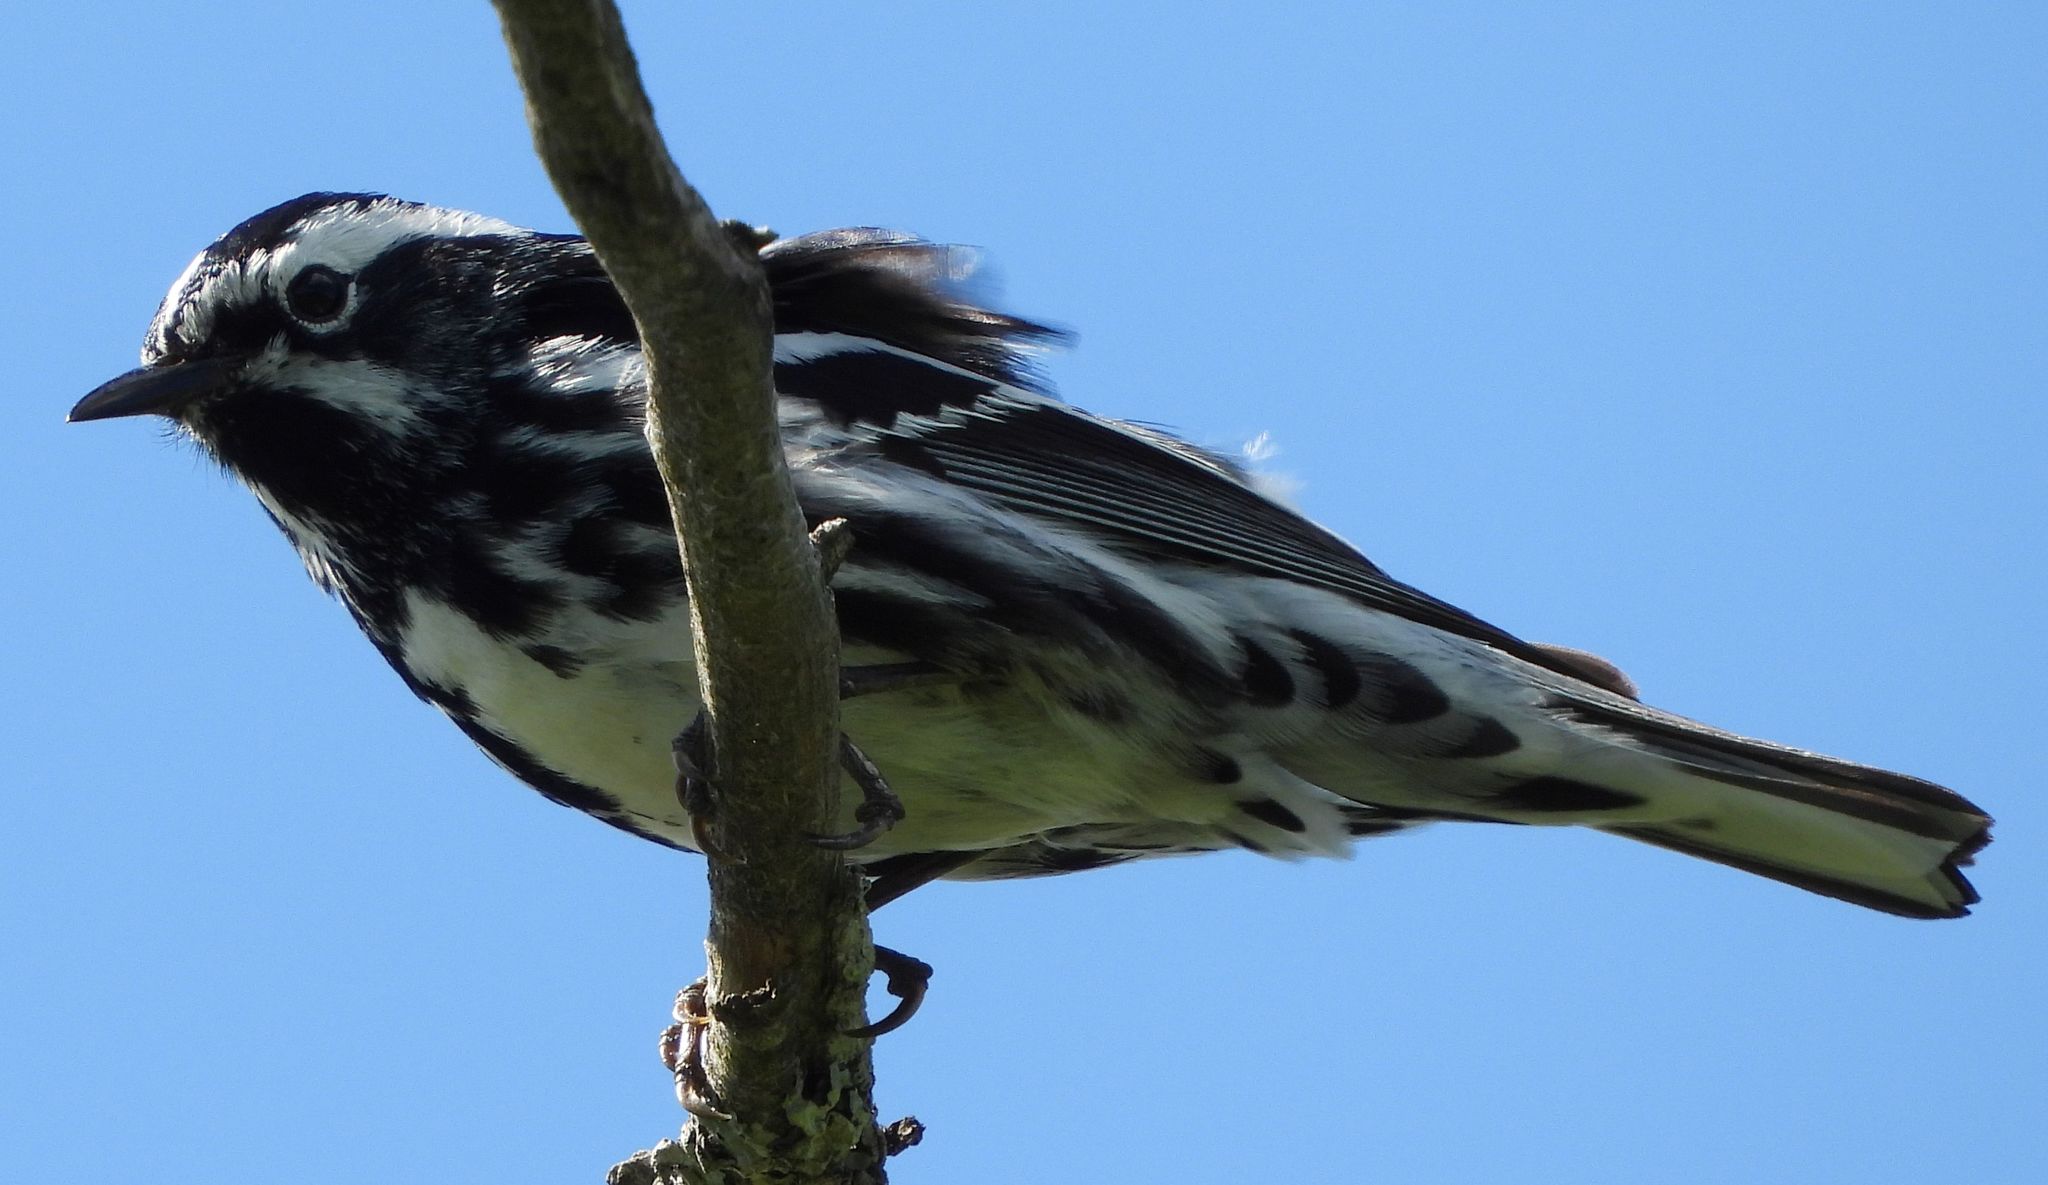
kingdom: Animalia
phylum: Chordata
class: Aves
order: Passeriformes
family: Parulidae
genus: Mniotilta
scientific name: Mniotilta varia
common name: Black-and-white warbler
